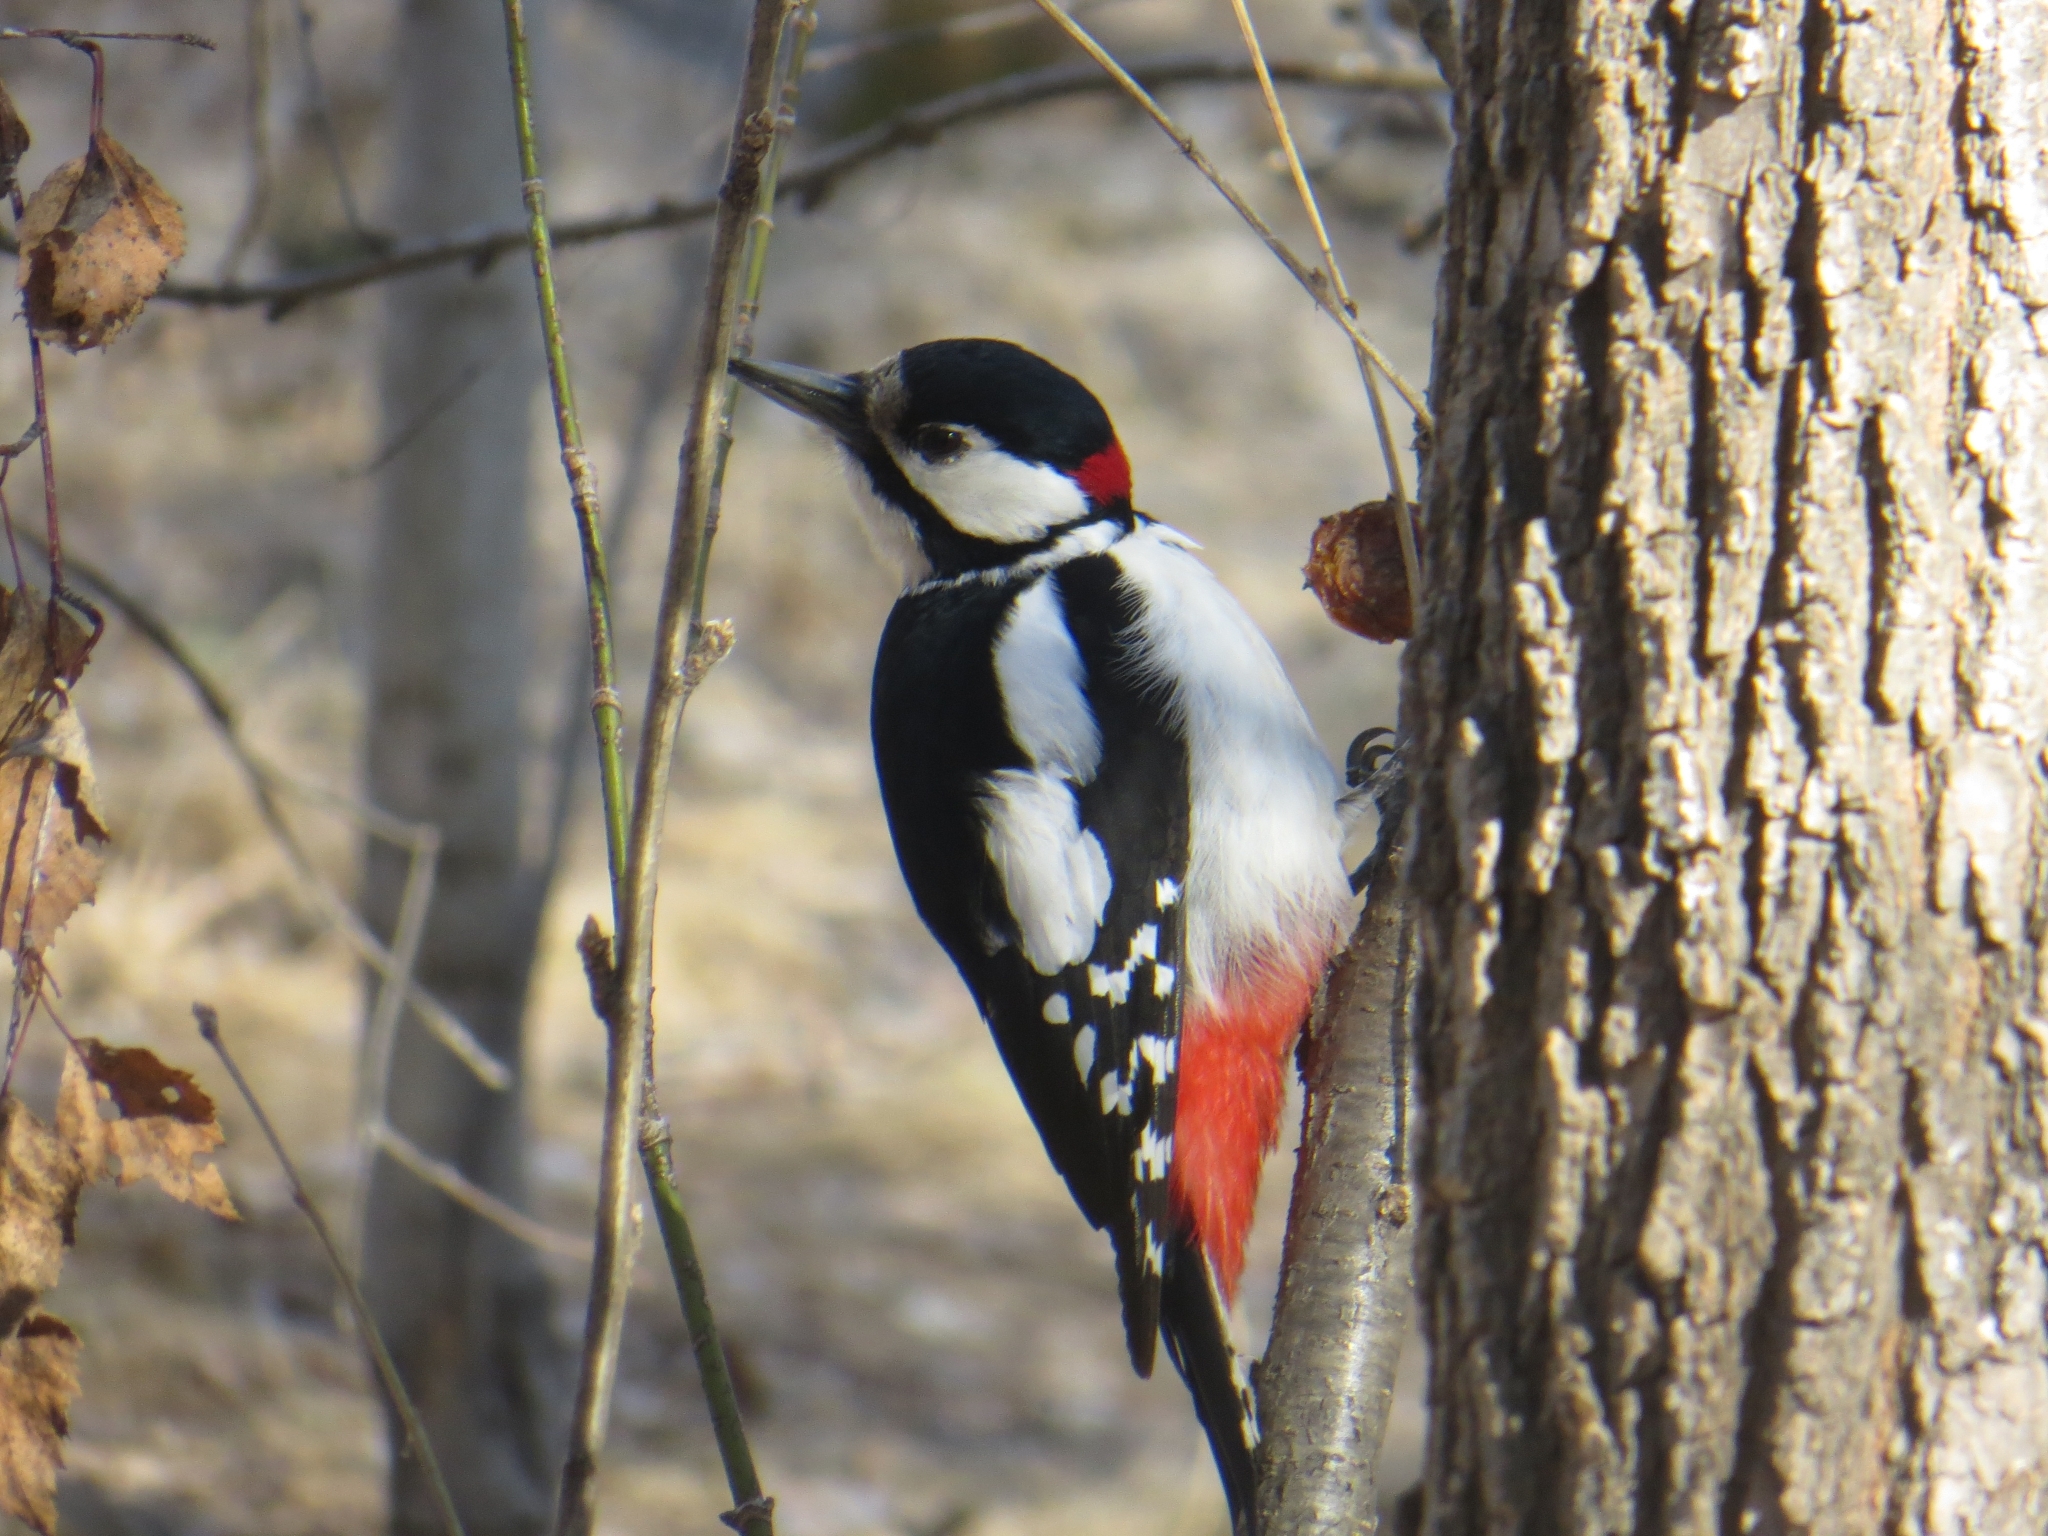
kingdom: Animalia
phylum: Chordata
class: Aves
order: Piciformes
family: Picidae
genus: Dendrocopos
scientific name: Dendrocopos major
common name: Great spotted woodpecker
